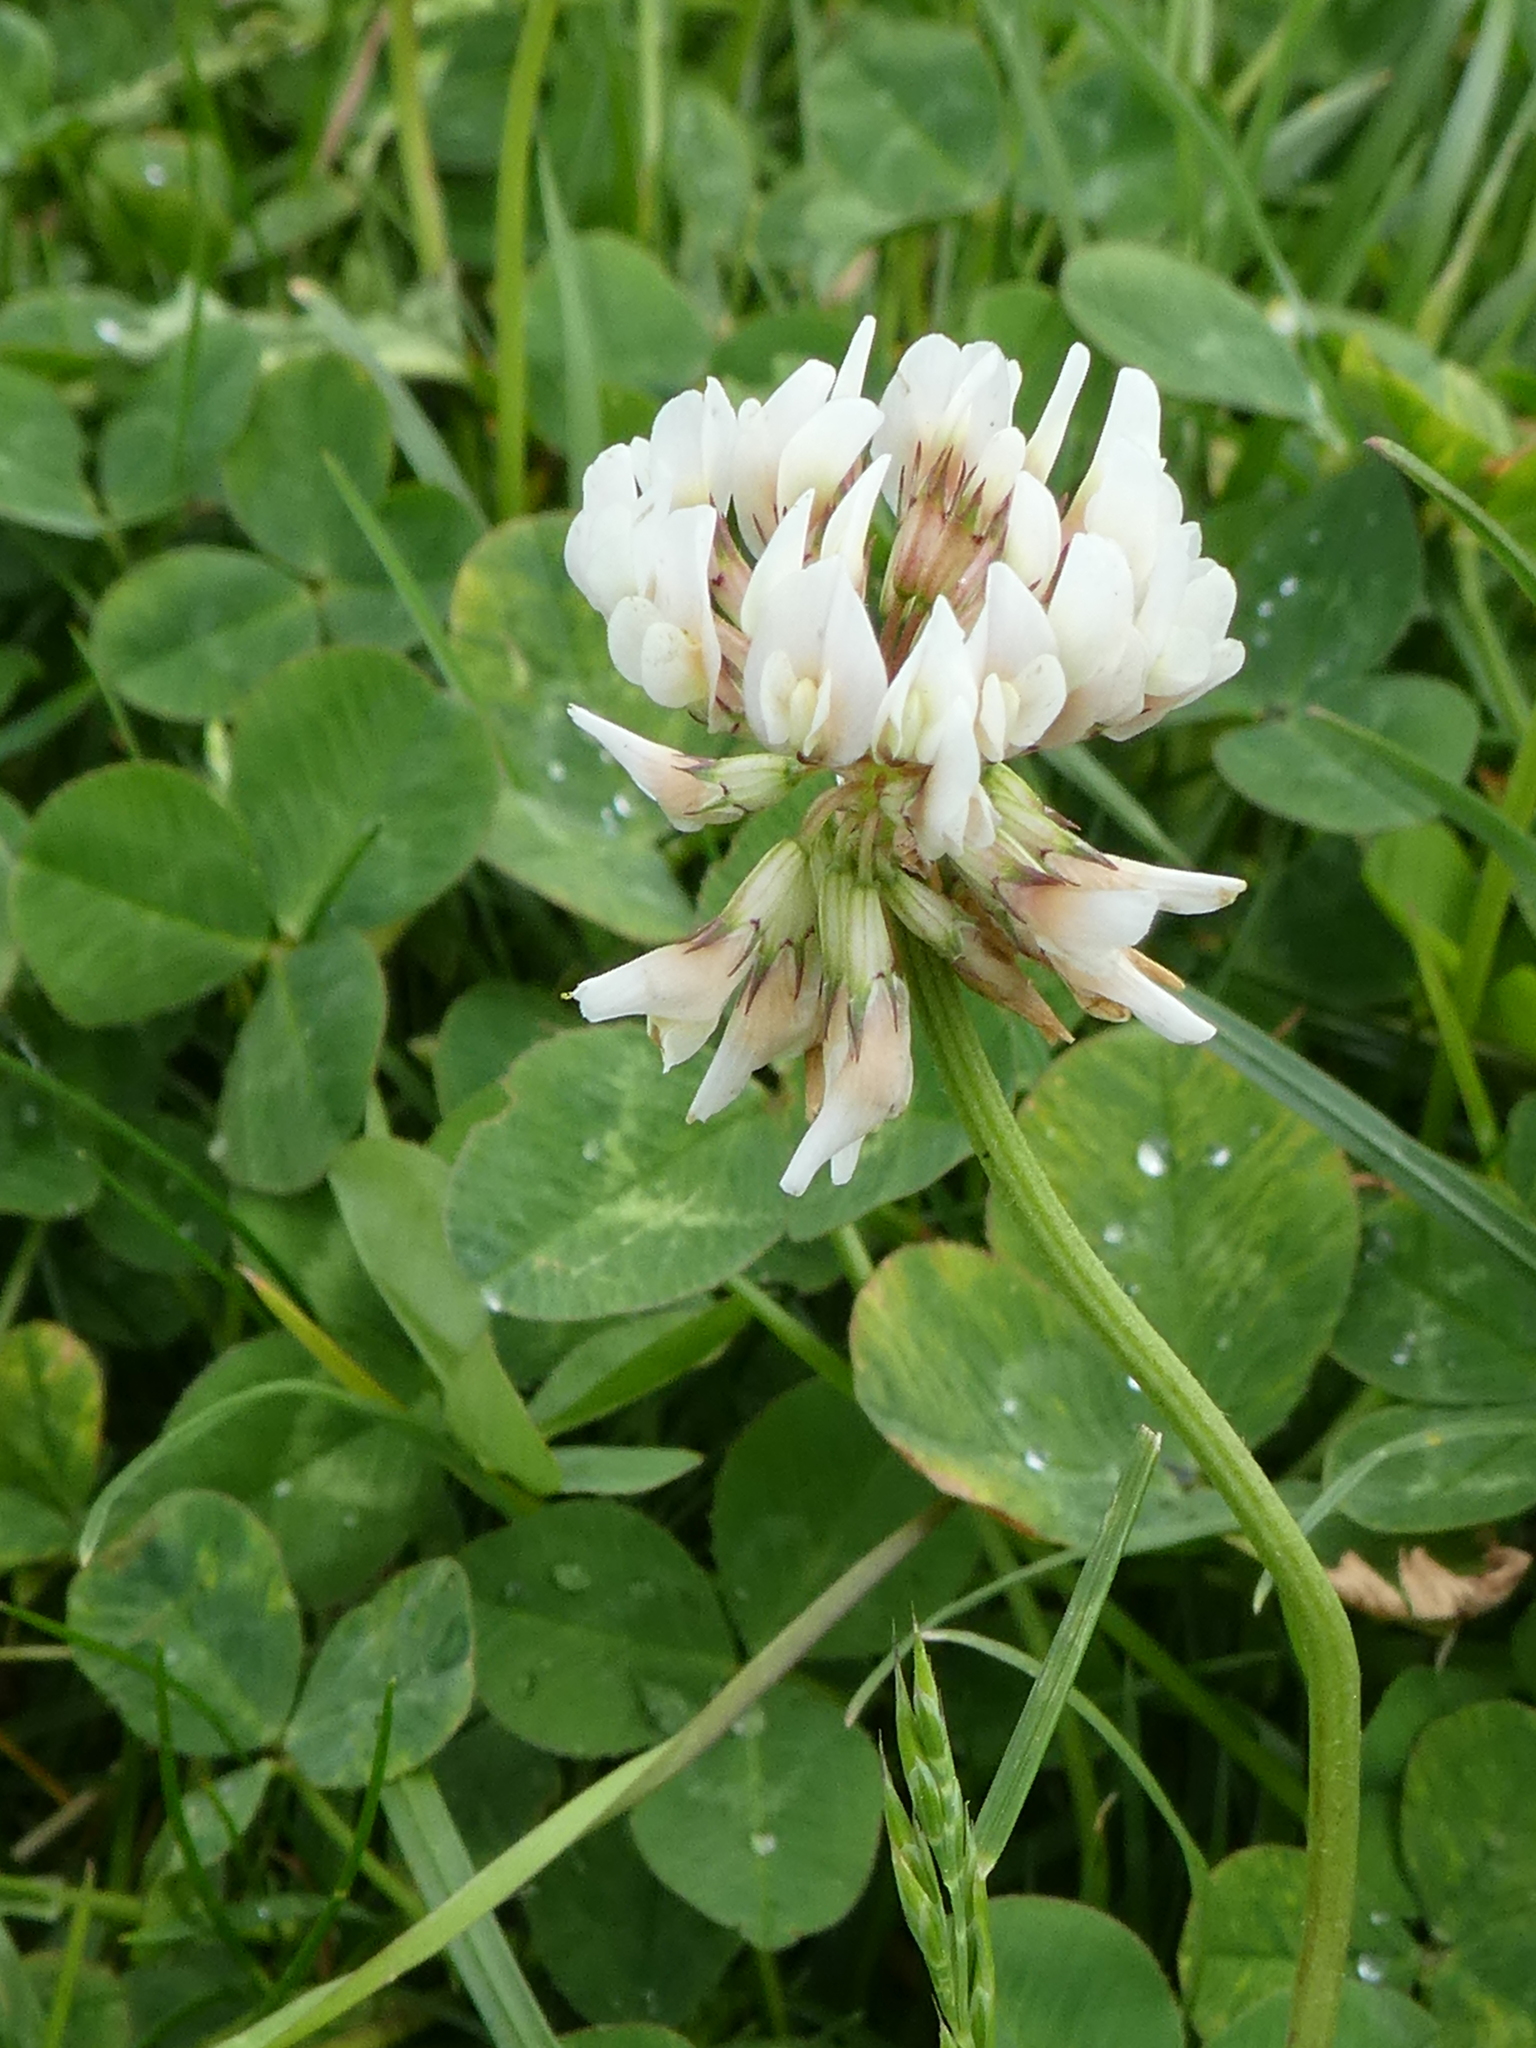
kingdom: Plantae
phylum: Tracheophyta
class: Magnoliopsida
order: Fabales
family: Fabaceae
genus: Trifolium
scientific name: Trifolium repens
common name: White clover
